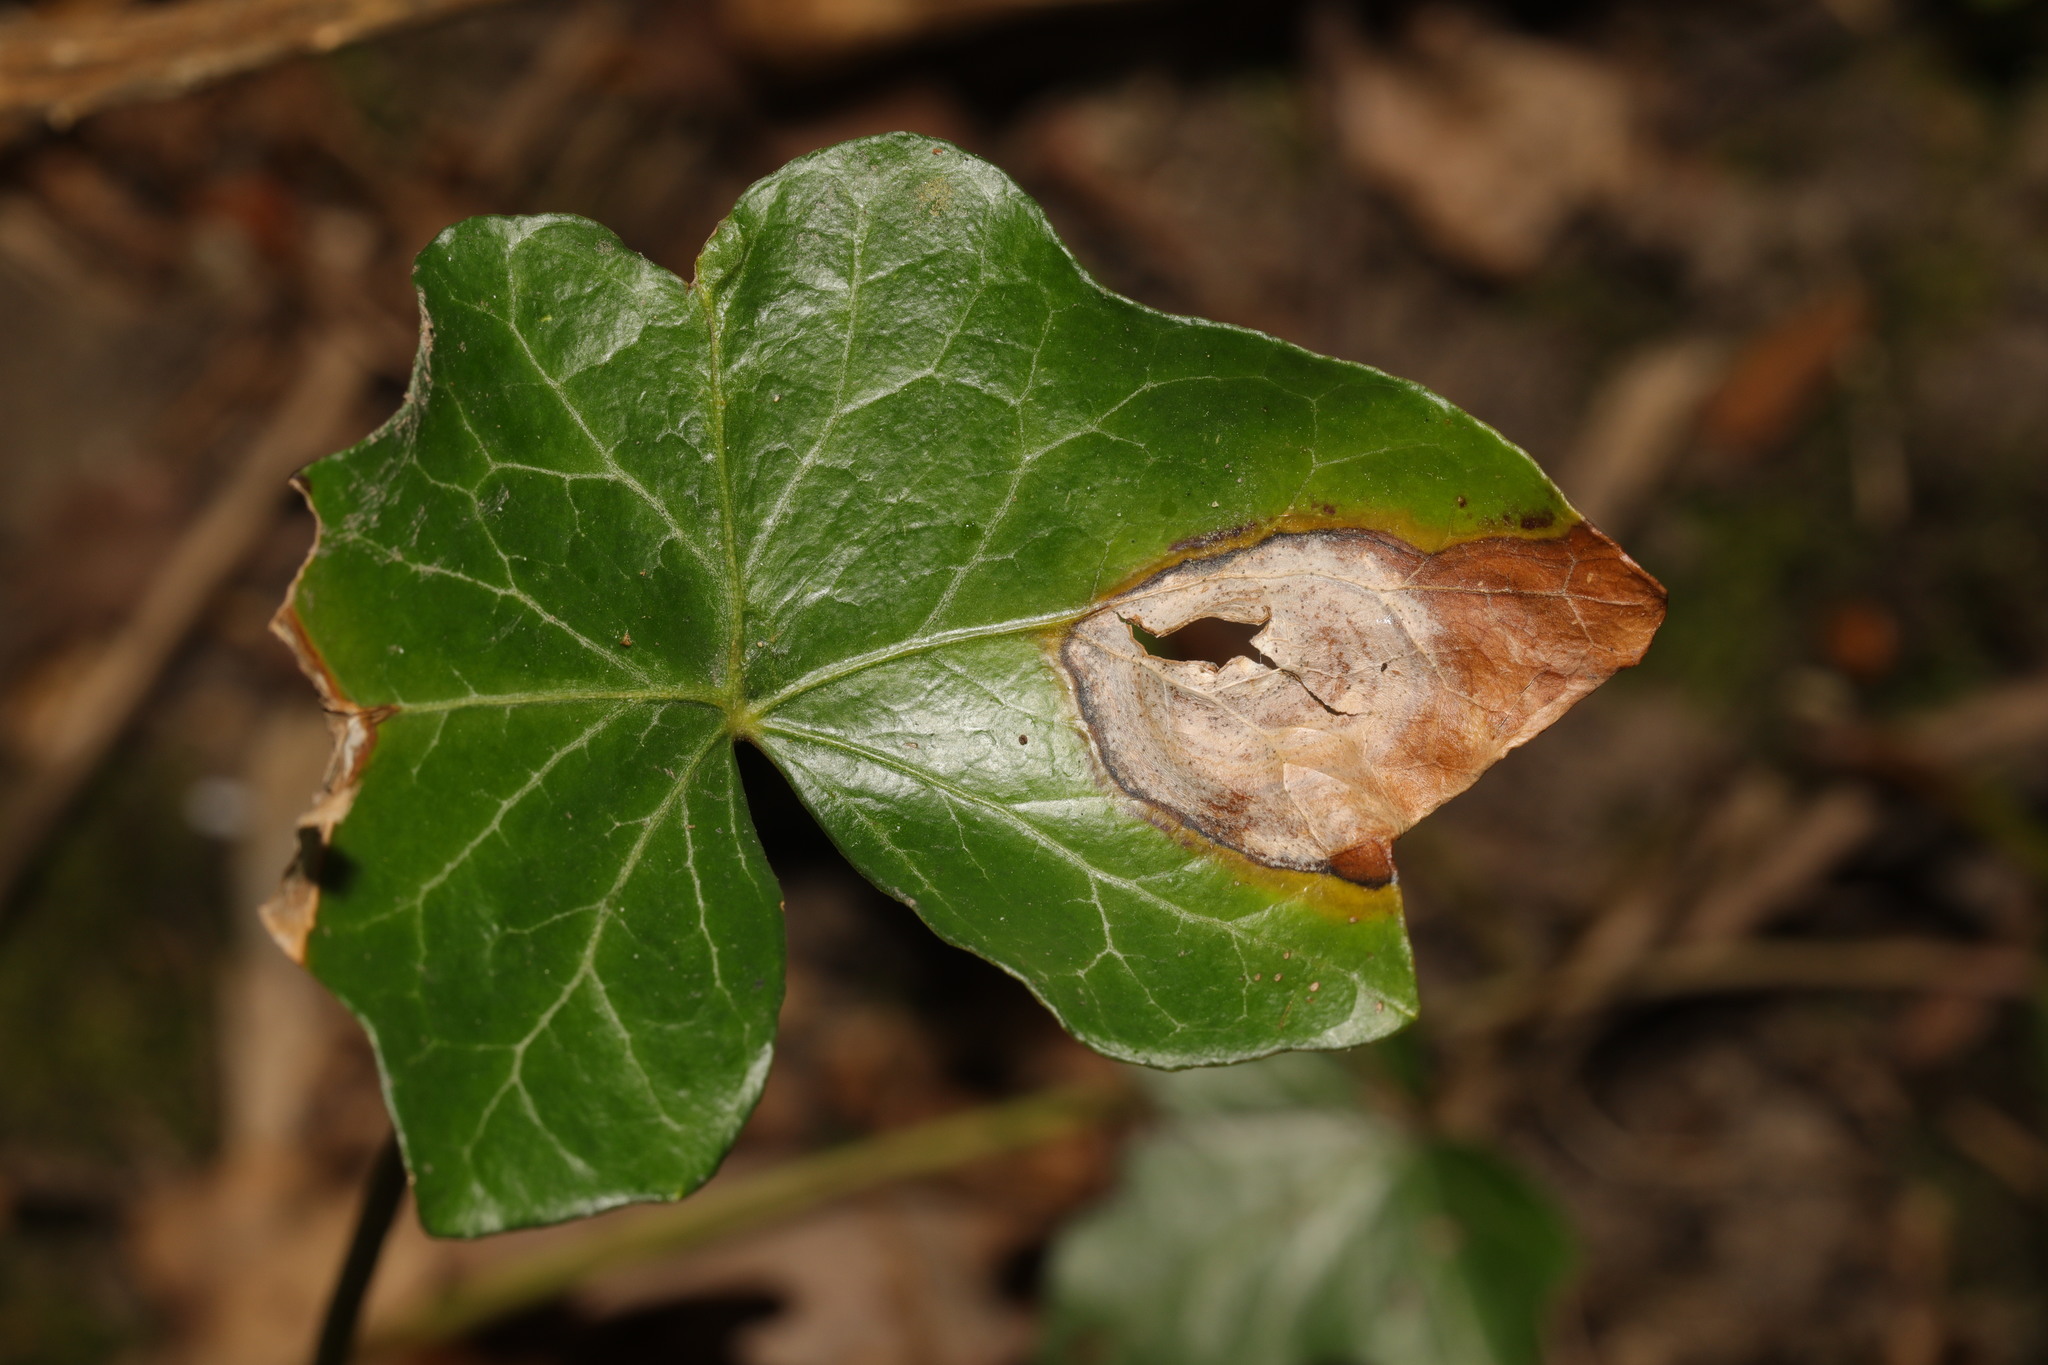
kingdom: Fungi
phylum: Ascomycota
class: Dothideomycetes
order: Pleosporales
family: Didymellaceae
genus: Boeremia
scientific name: Boeremia hedericola
